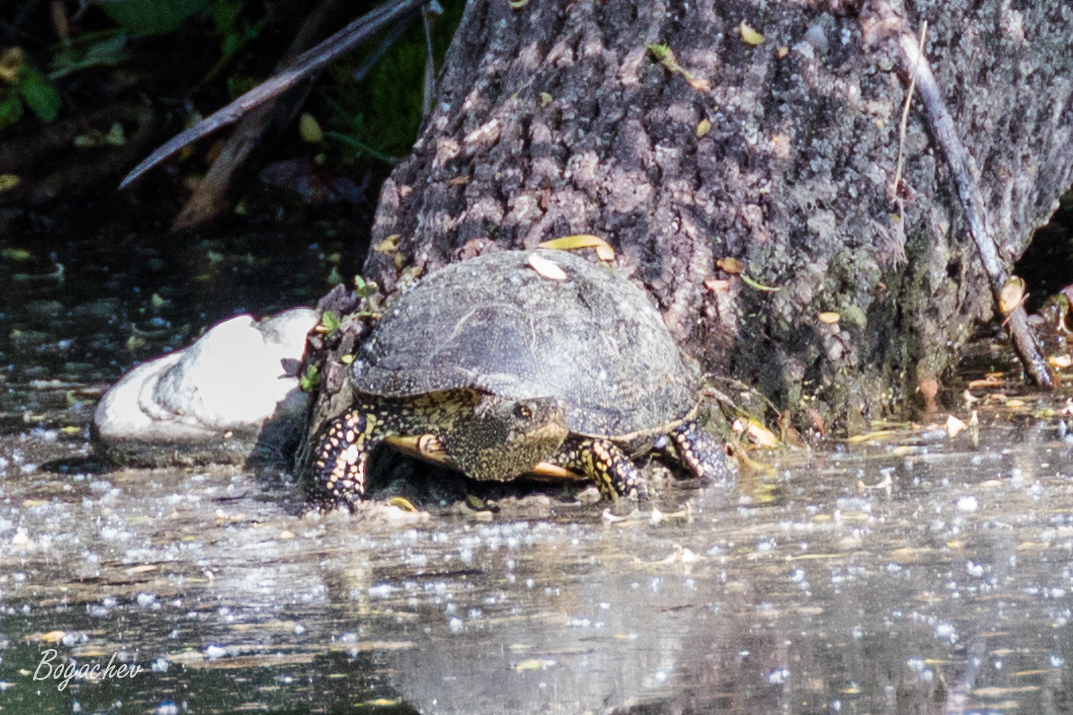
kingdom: Animalia
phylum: Chordata
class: Testudines
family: Emydidae
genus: Emys
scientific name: Emys orbicularis
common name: European pond turtle
